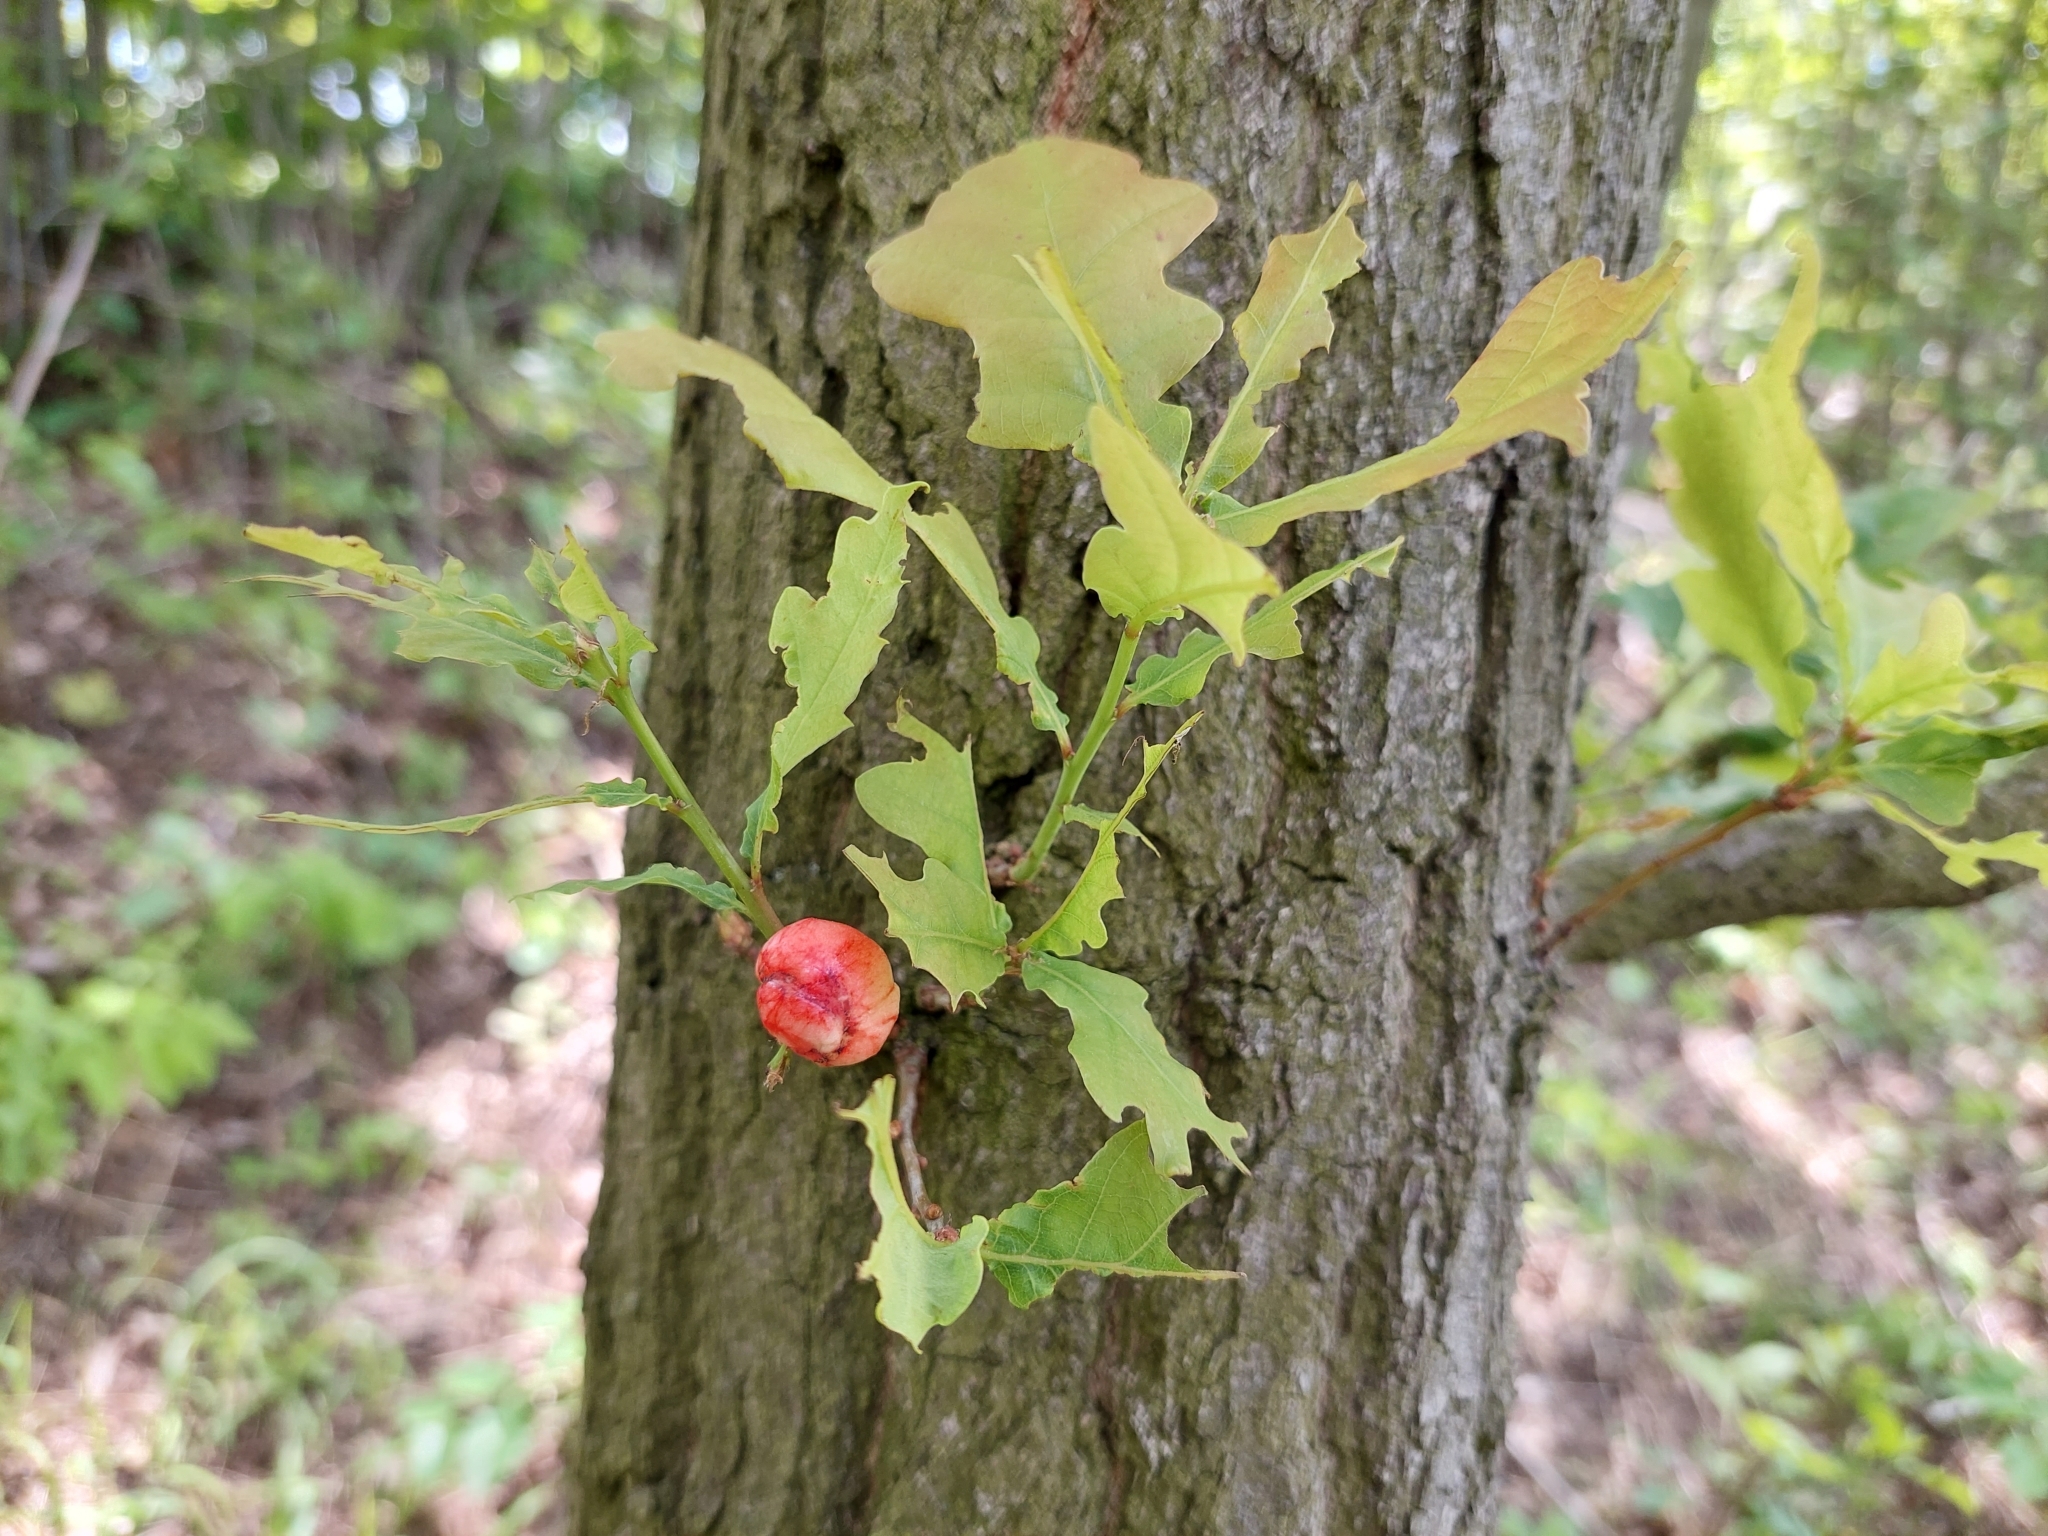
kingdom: Animalia
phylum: Arthropoda
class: Insecta
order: Hymenoptera
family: Cynipidae
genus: Biorhiza
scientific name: Biorhiza pallida
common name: Oak apple
